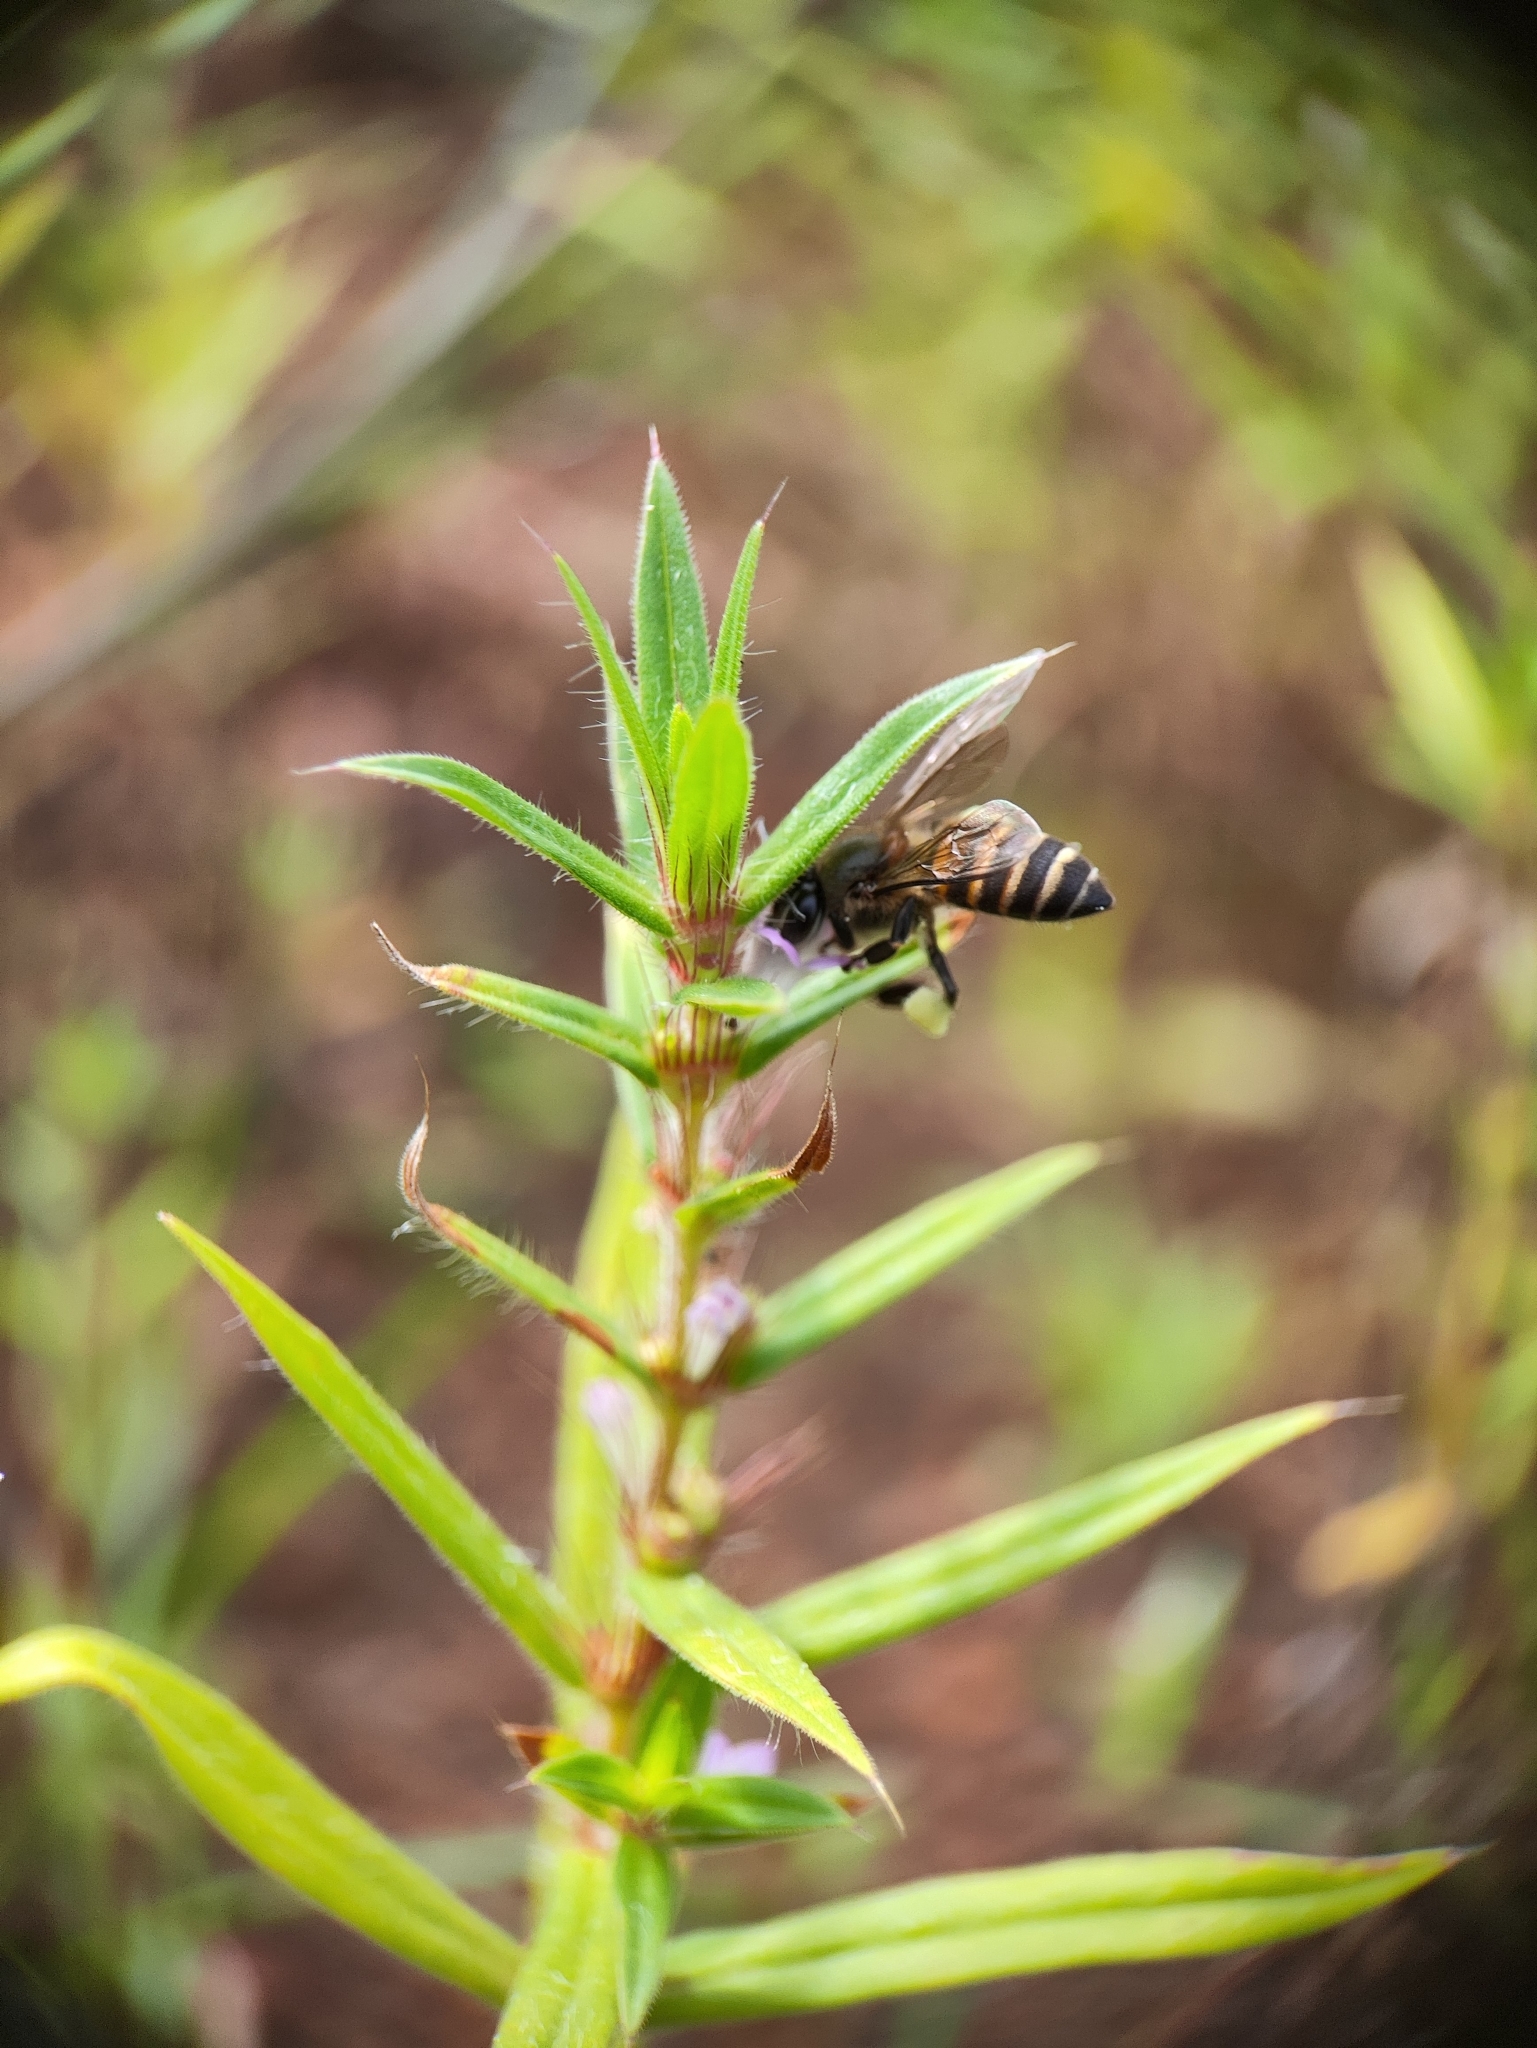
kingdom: Animalia
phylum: Arthropoda
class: Insecta
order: Hymenoptera
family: Apidae
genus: Apis
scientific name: Apis cerana
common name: Honey bee
